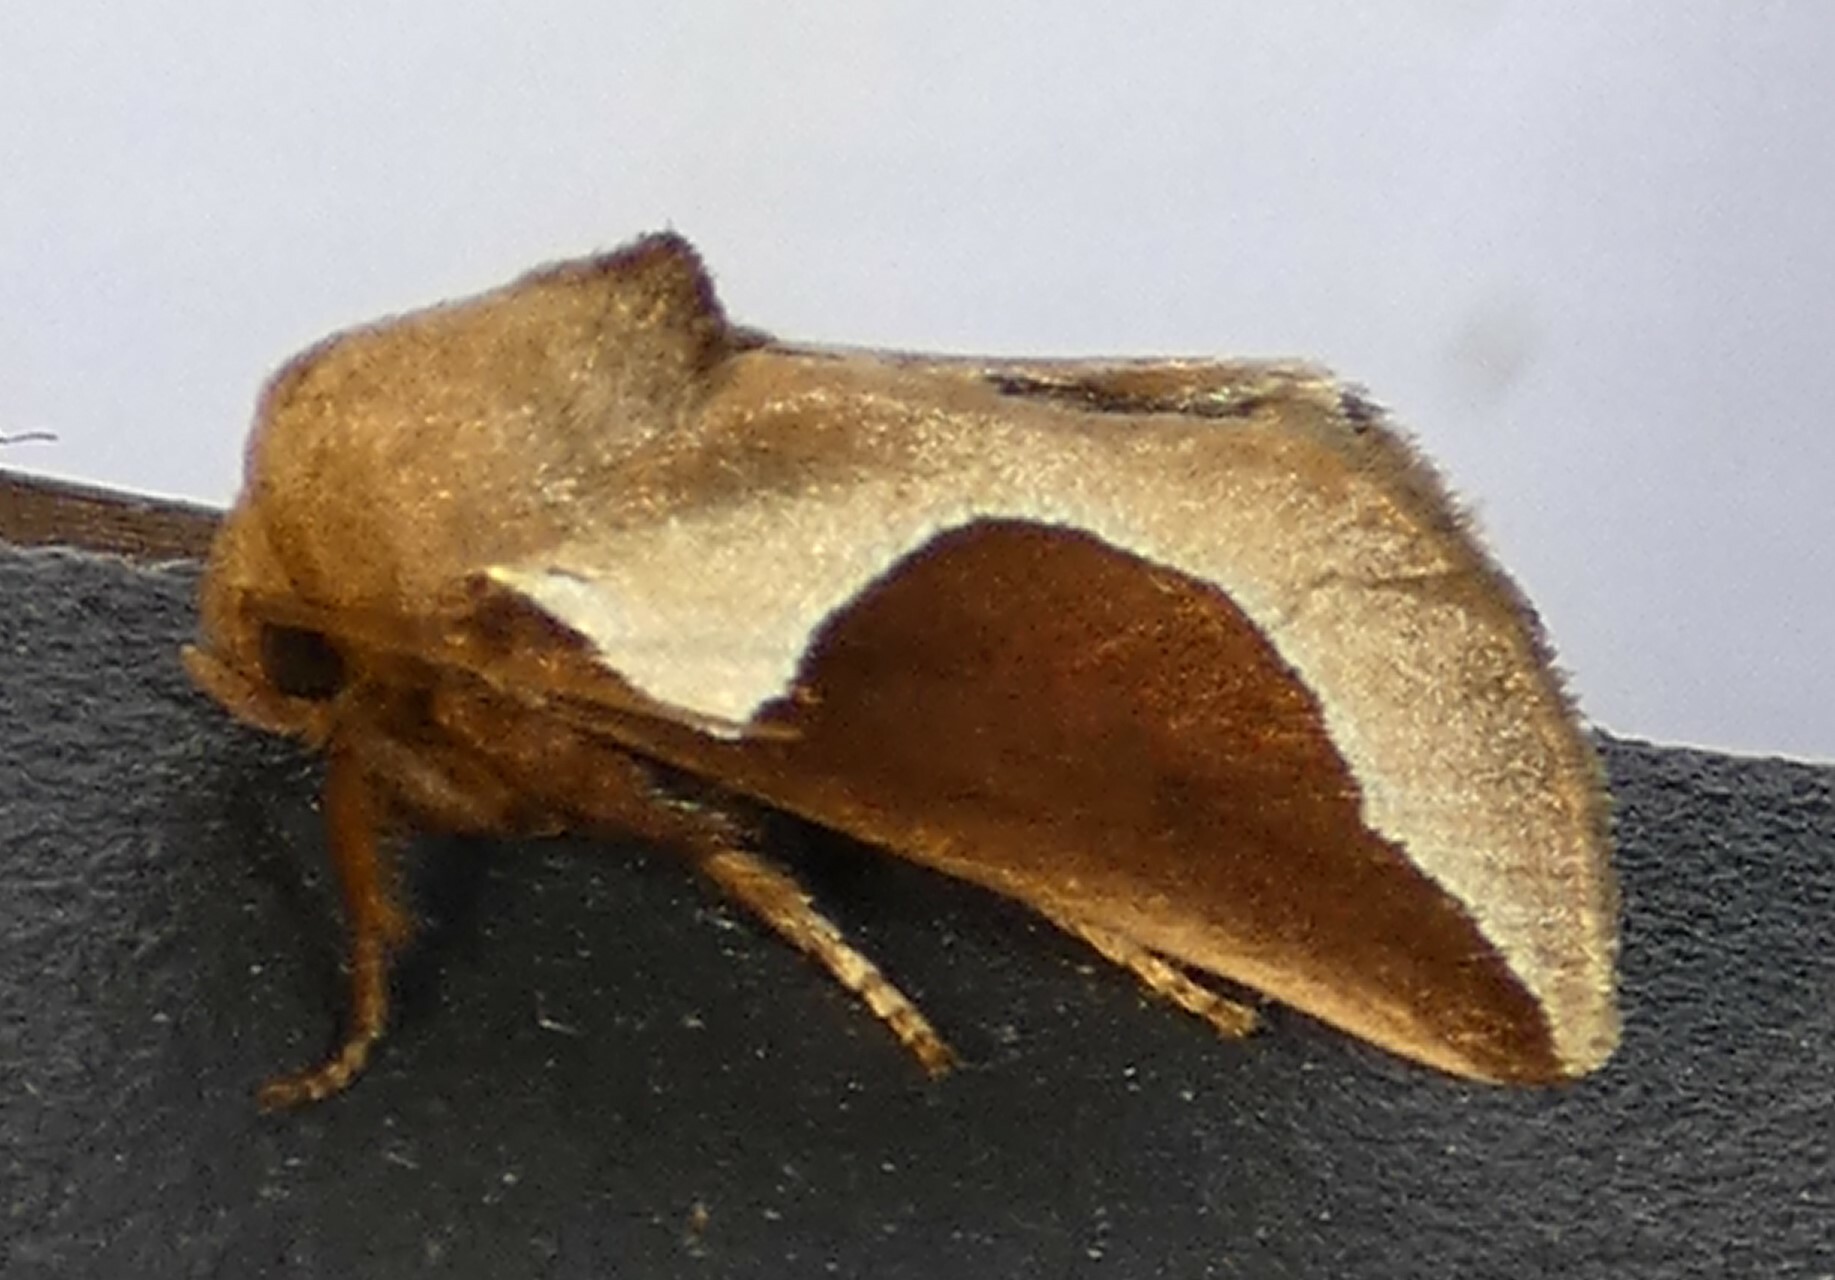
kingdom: Animalia
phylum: Arthropoda
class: Insecta
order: Lepidoptera
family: Limacodidae
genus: Prolimacodes
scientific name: Prolimacodes badia
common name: Skiff moth
